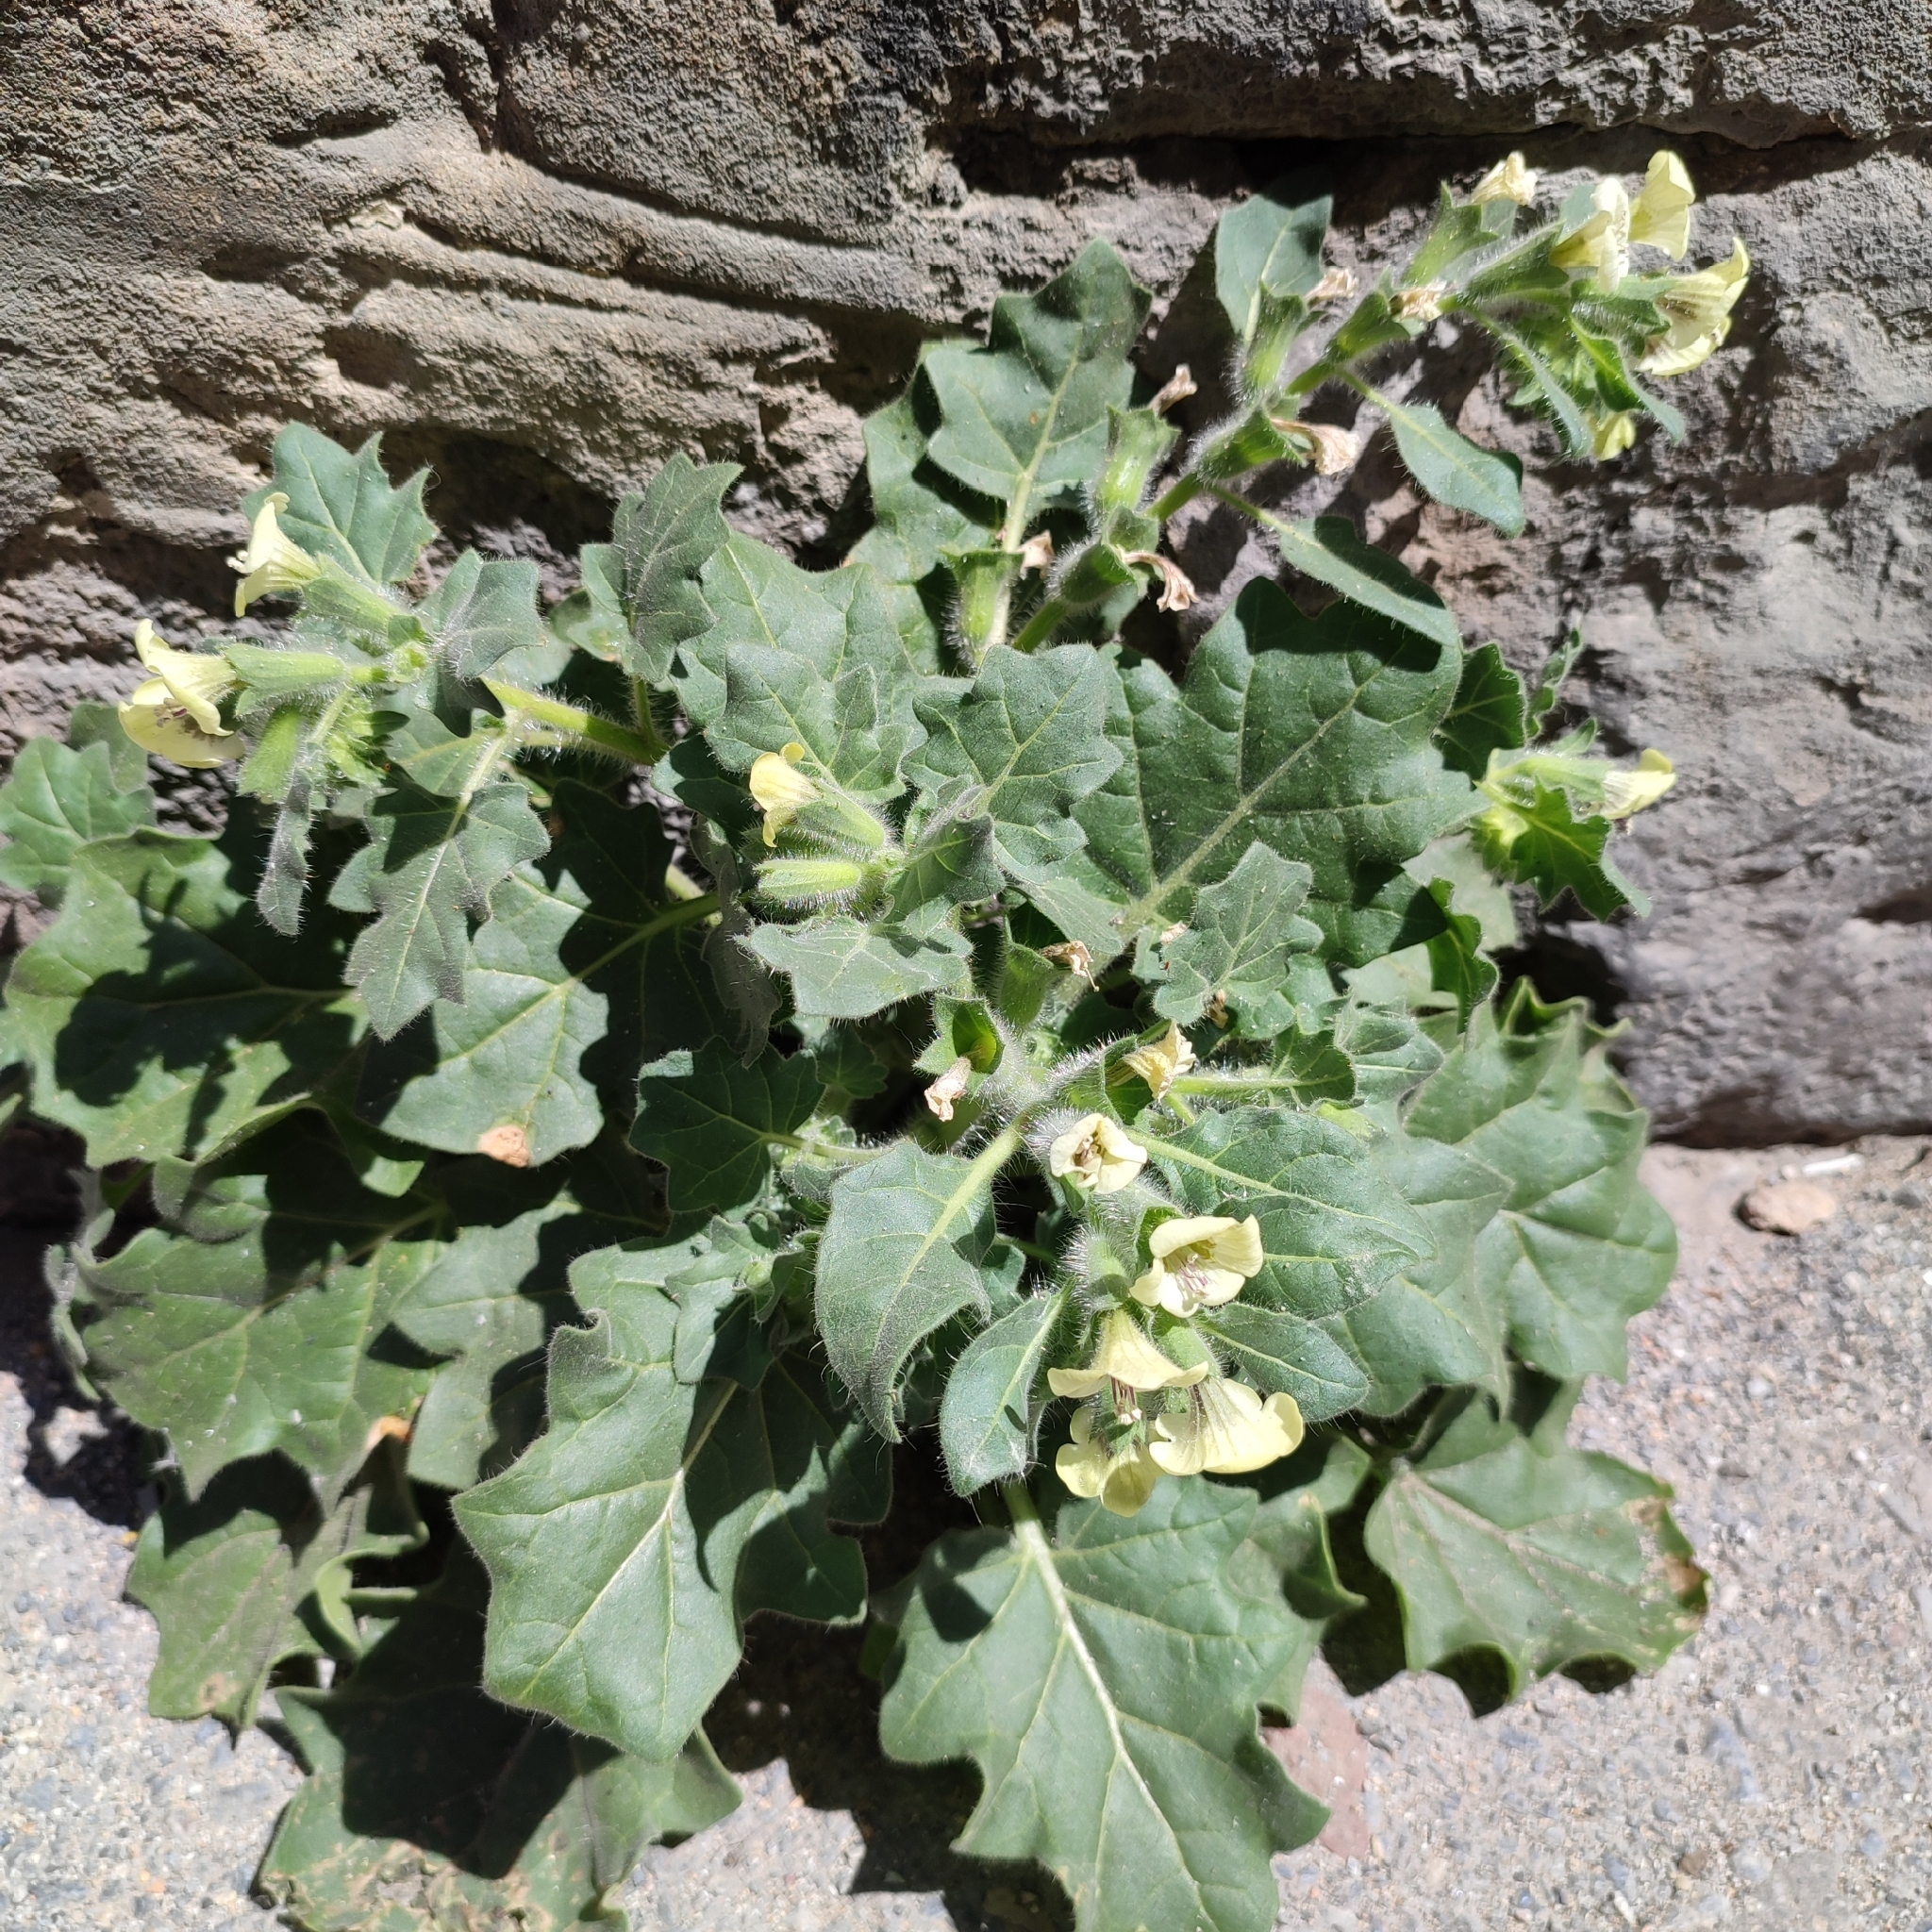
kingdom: Plantae
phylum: Tracheophyta
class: Magnoliopsida
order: Solanales
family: Solanaceae
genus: Hyoscyamus
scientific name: Hyoscyamus albus
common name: White henbane
